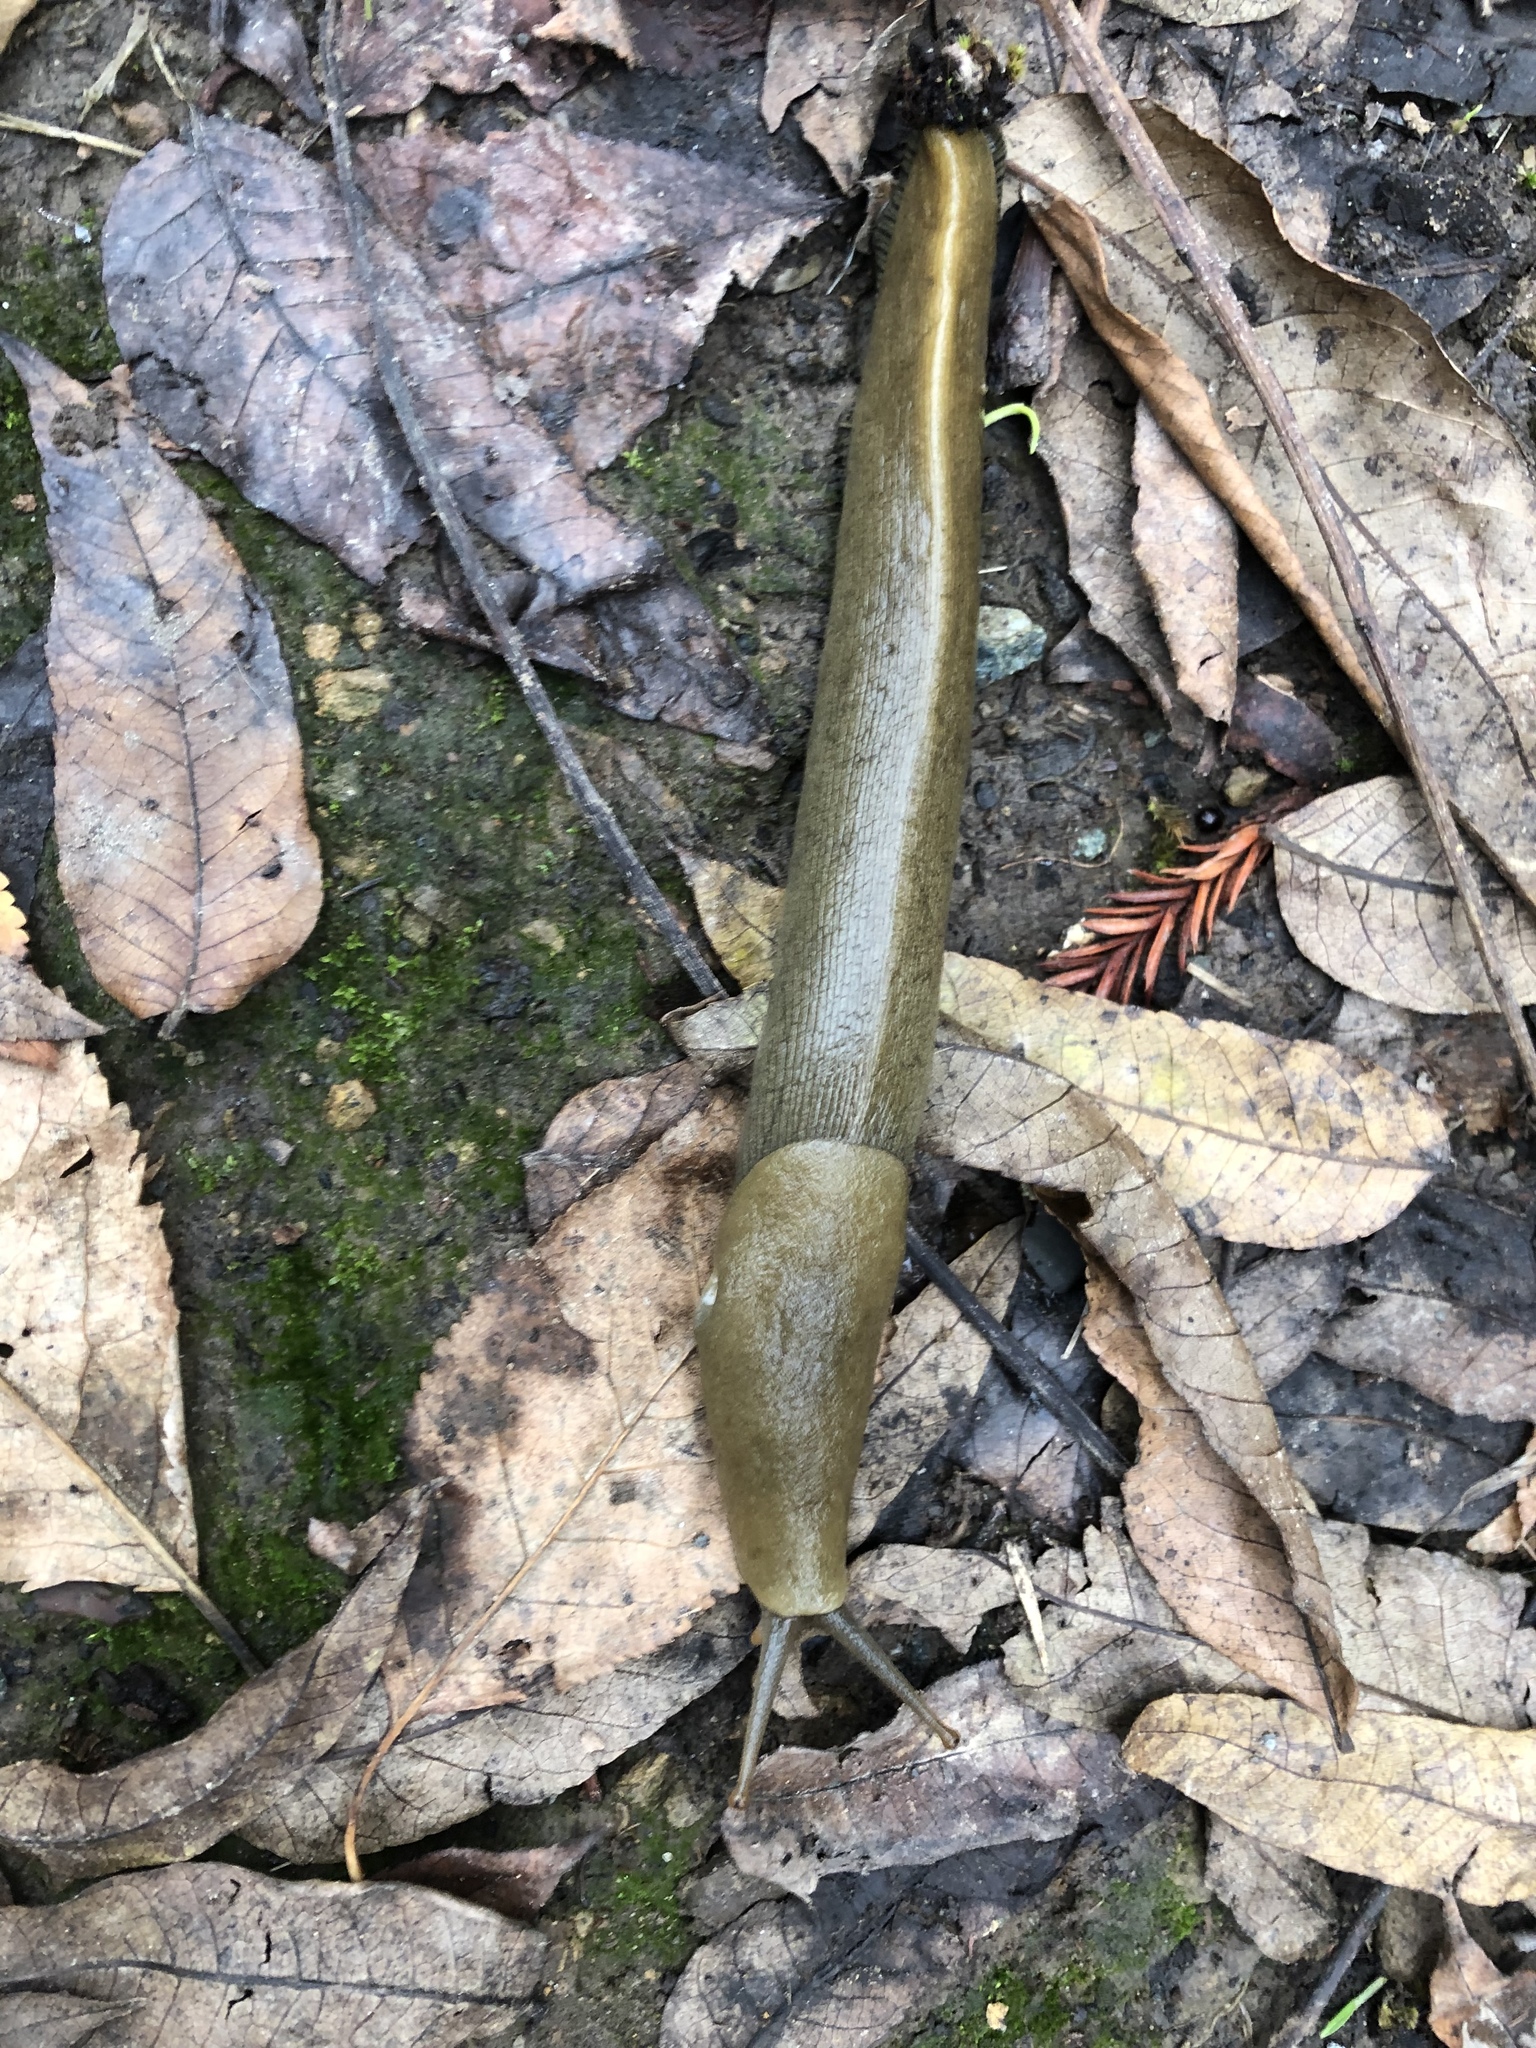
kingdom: Animalia
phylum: Mollusca
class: Gastropoda
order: Stylommatophora
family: Ariolimacidae
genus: Ariolimax
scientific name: Ariolimax buttoni
